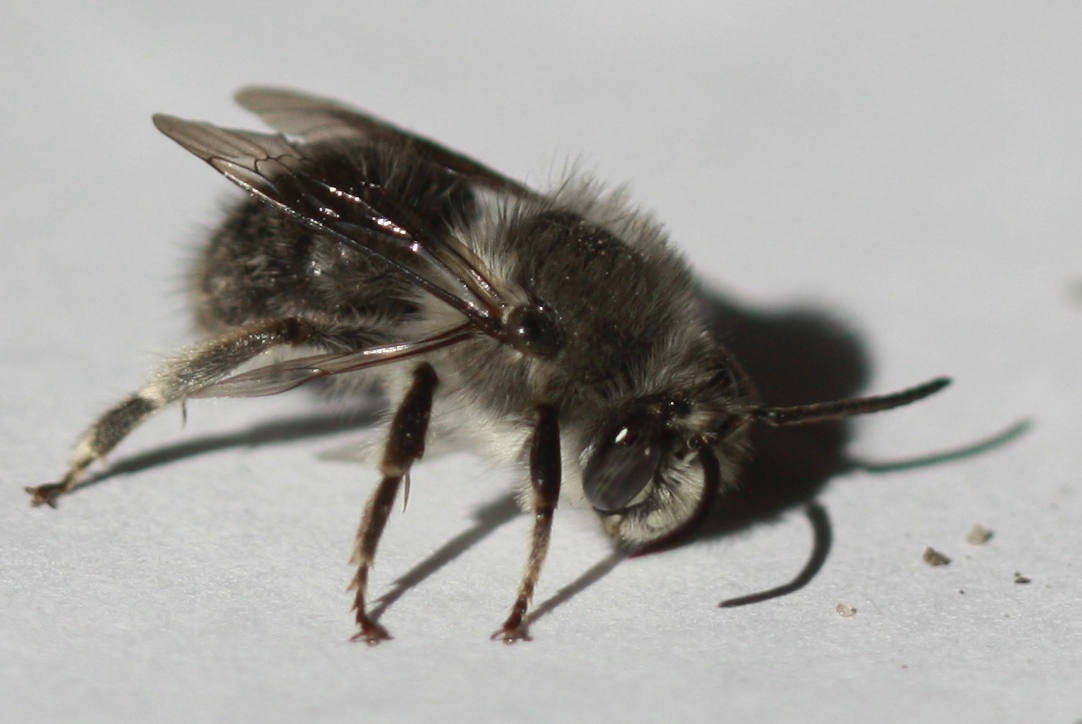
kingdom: Animalia
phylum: Arthropoda
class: Insecta
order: Hymenoptera
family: Apidae
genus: Habropoda
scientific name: Habropoda depressa
